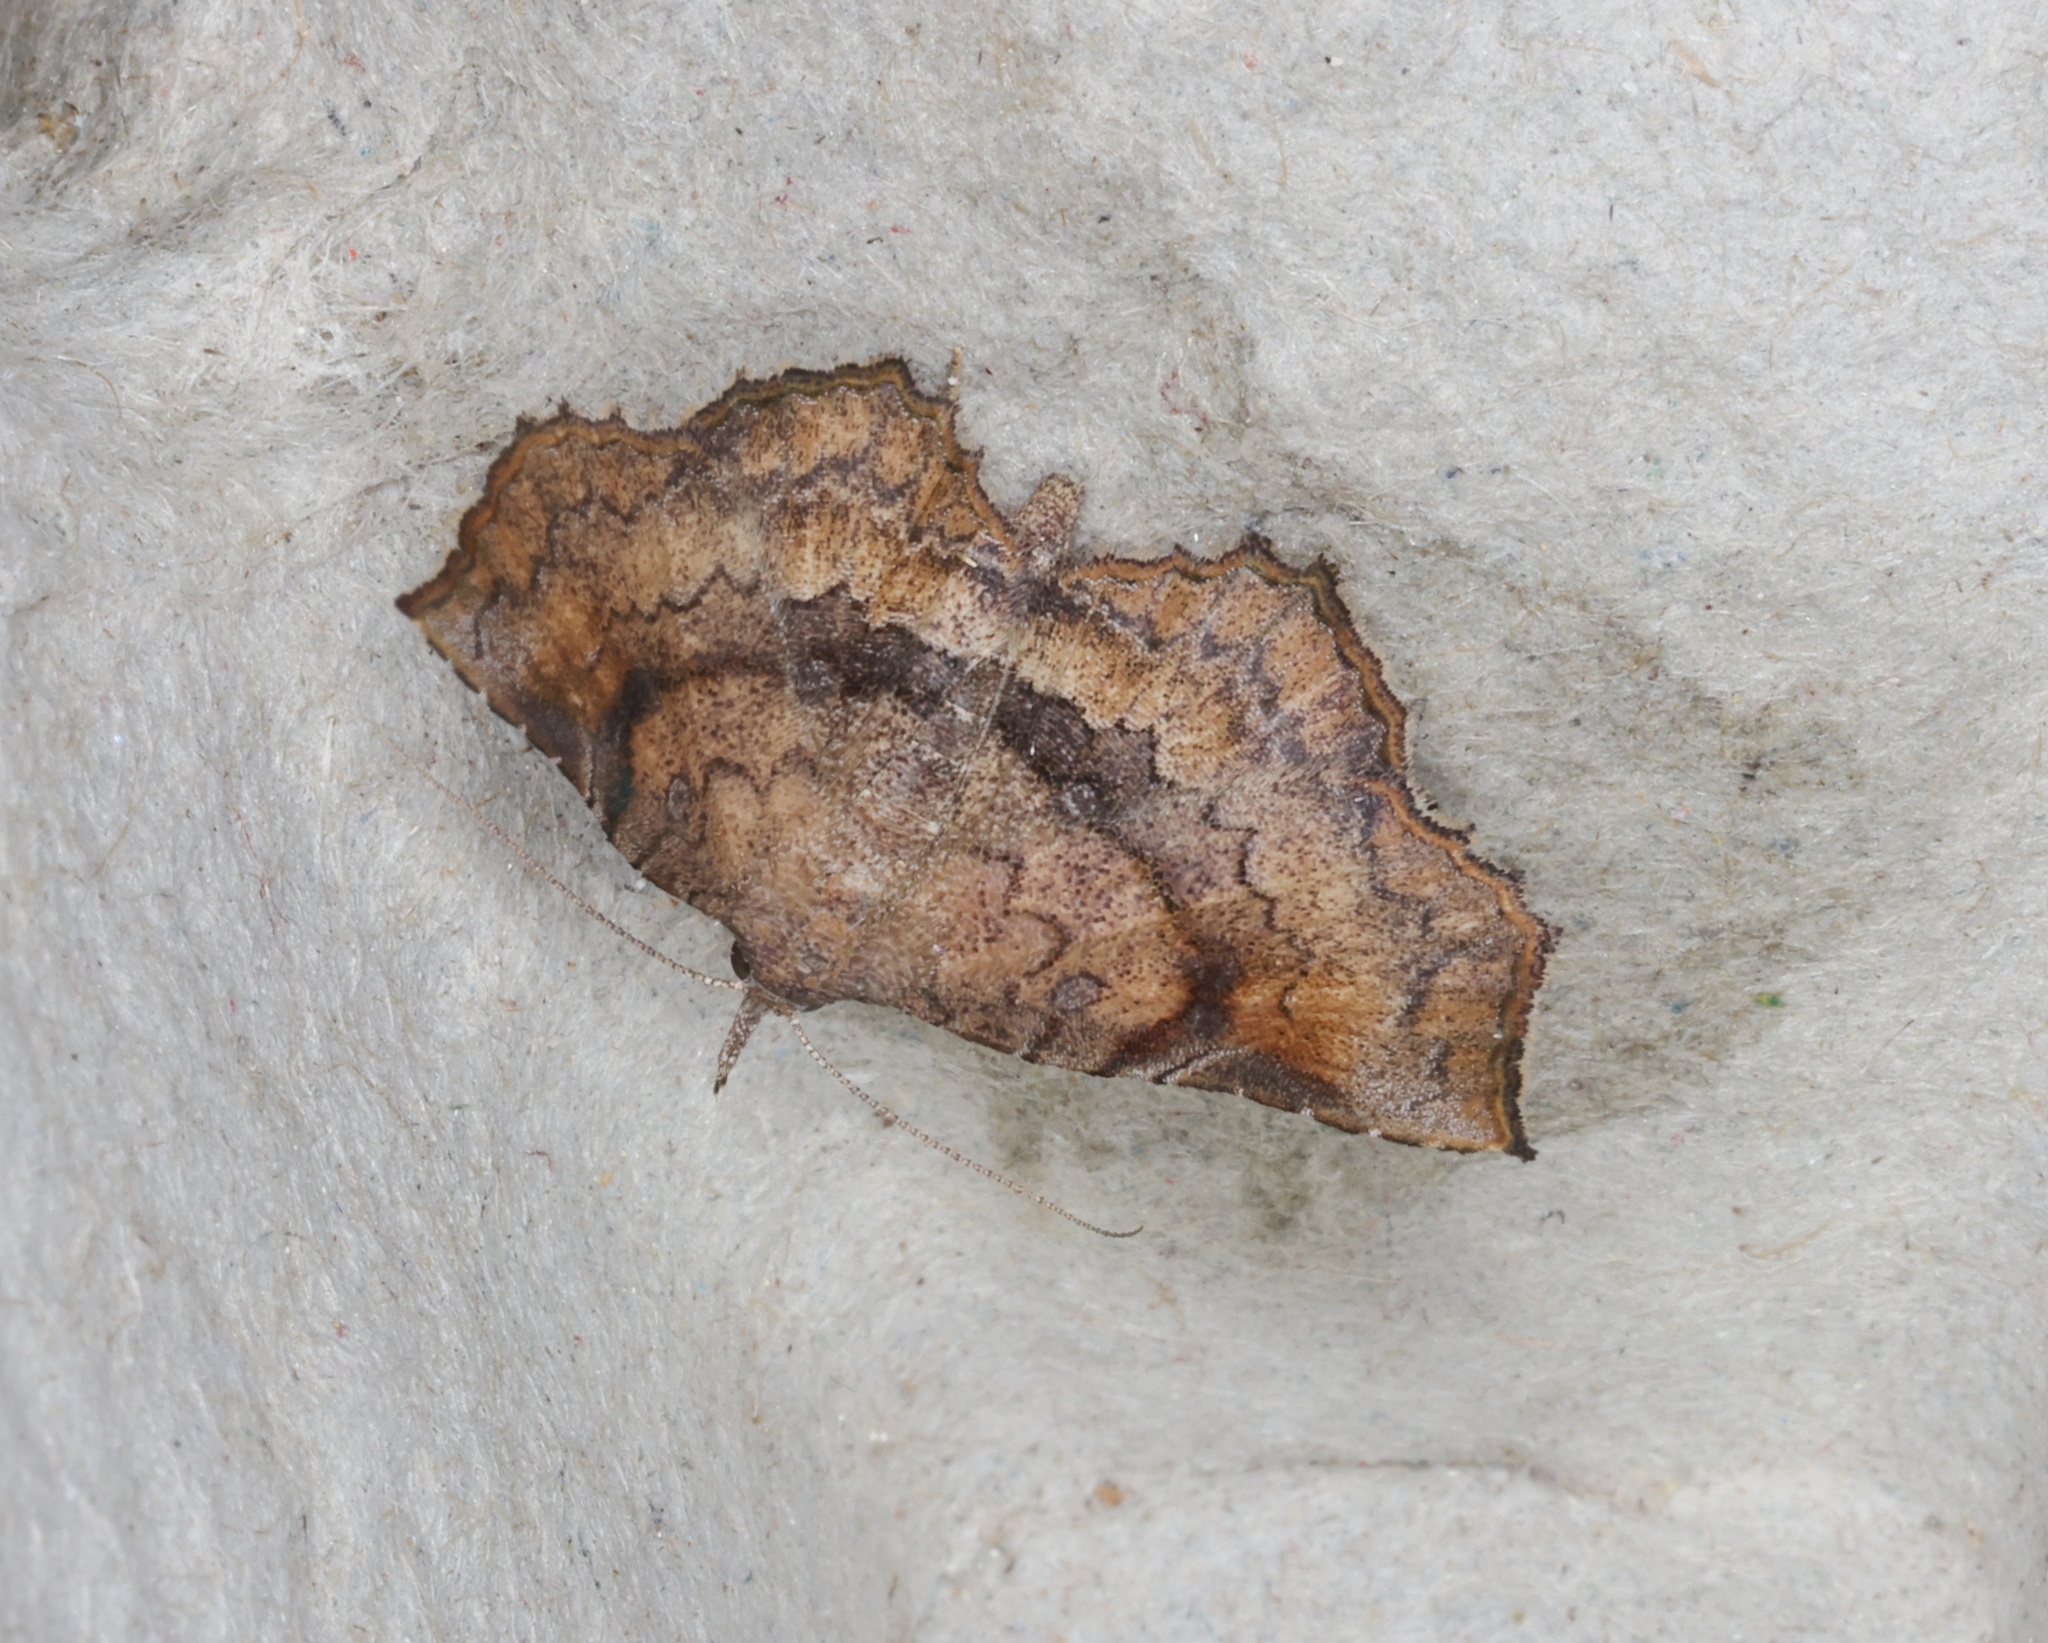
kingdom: Animalia
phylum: Arthropoda
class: Insecta
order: Lepidoptera
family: Erebidae
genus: Throana
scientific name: Throana pectinifer
